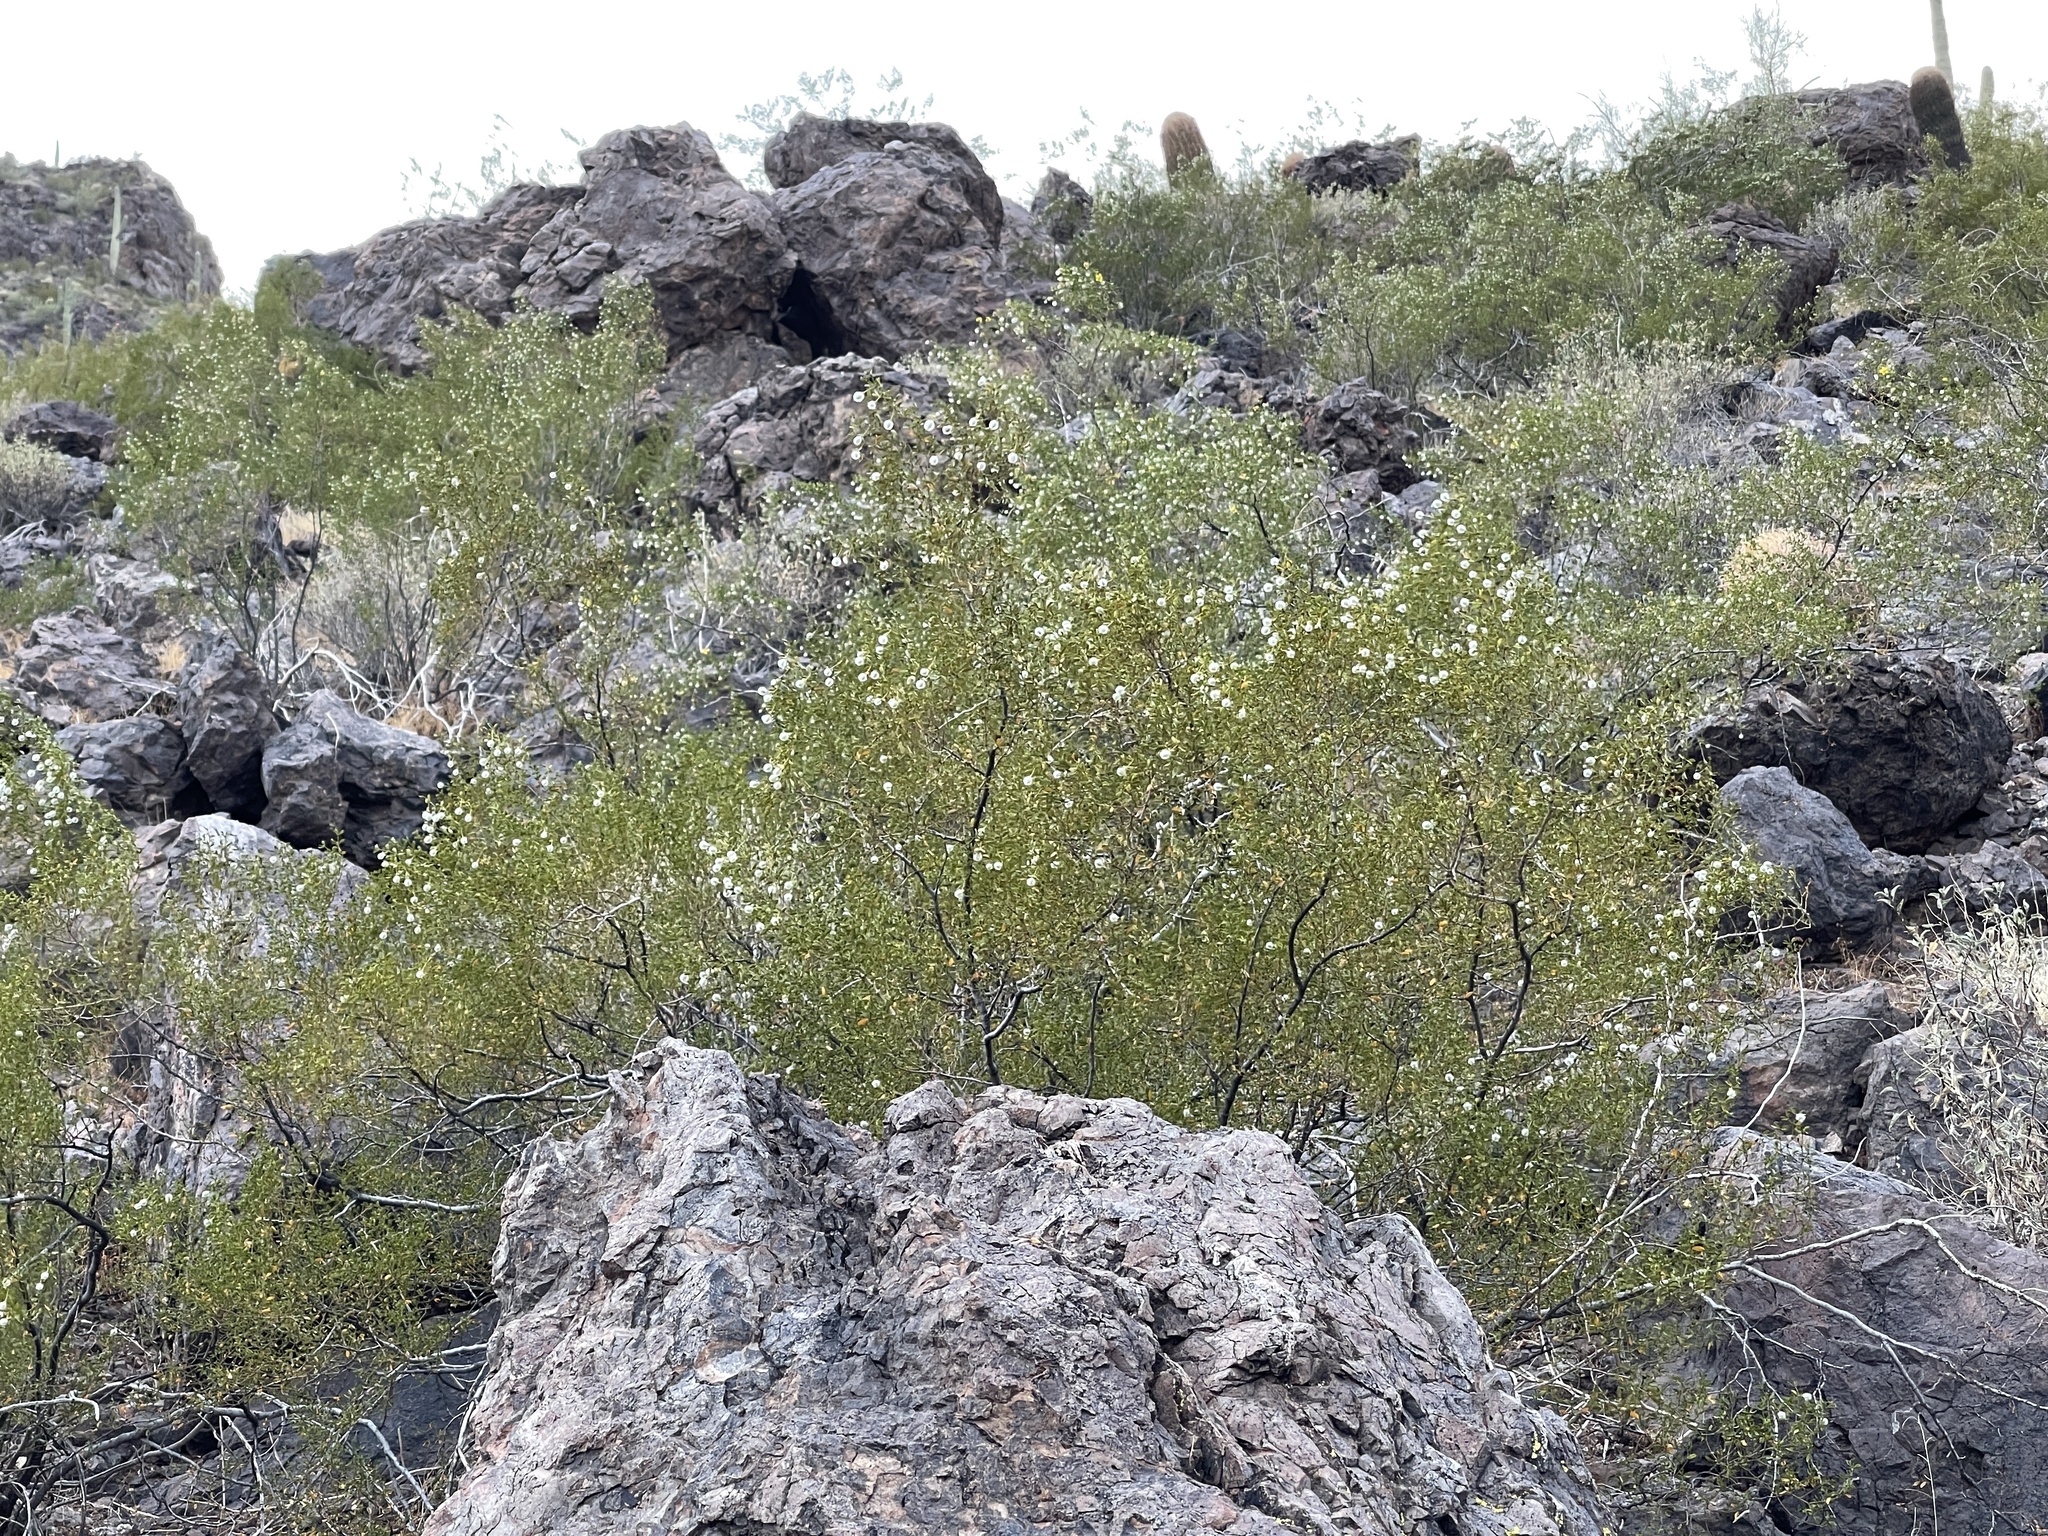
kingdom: Plantae
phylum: Tracheophyta
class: Magnoliopsida
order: Zygophyllales
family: Zygophyllaceae
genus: Larrea
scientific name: Larrea tridentata
